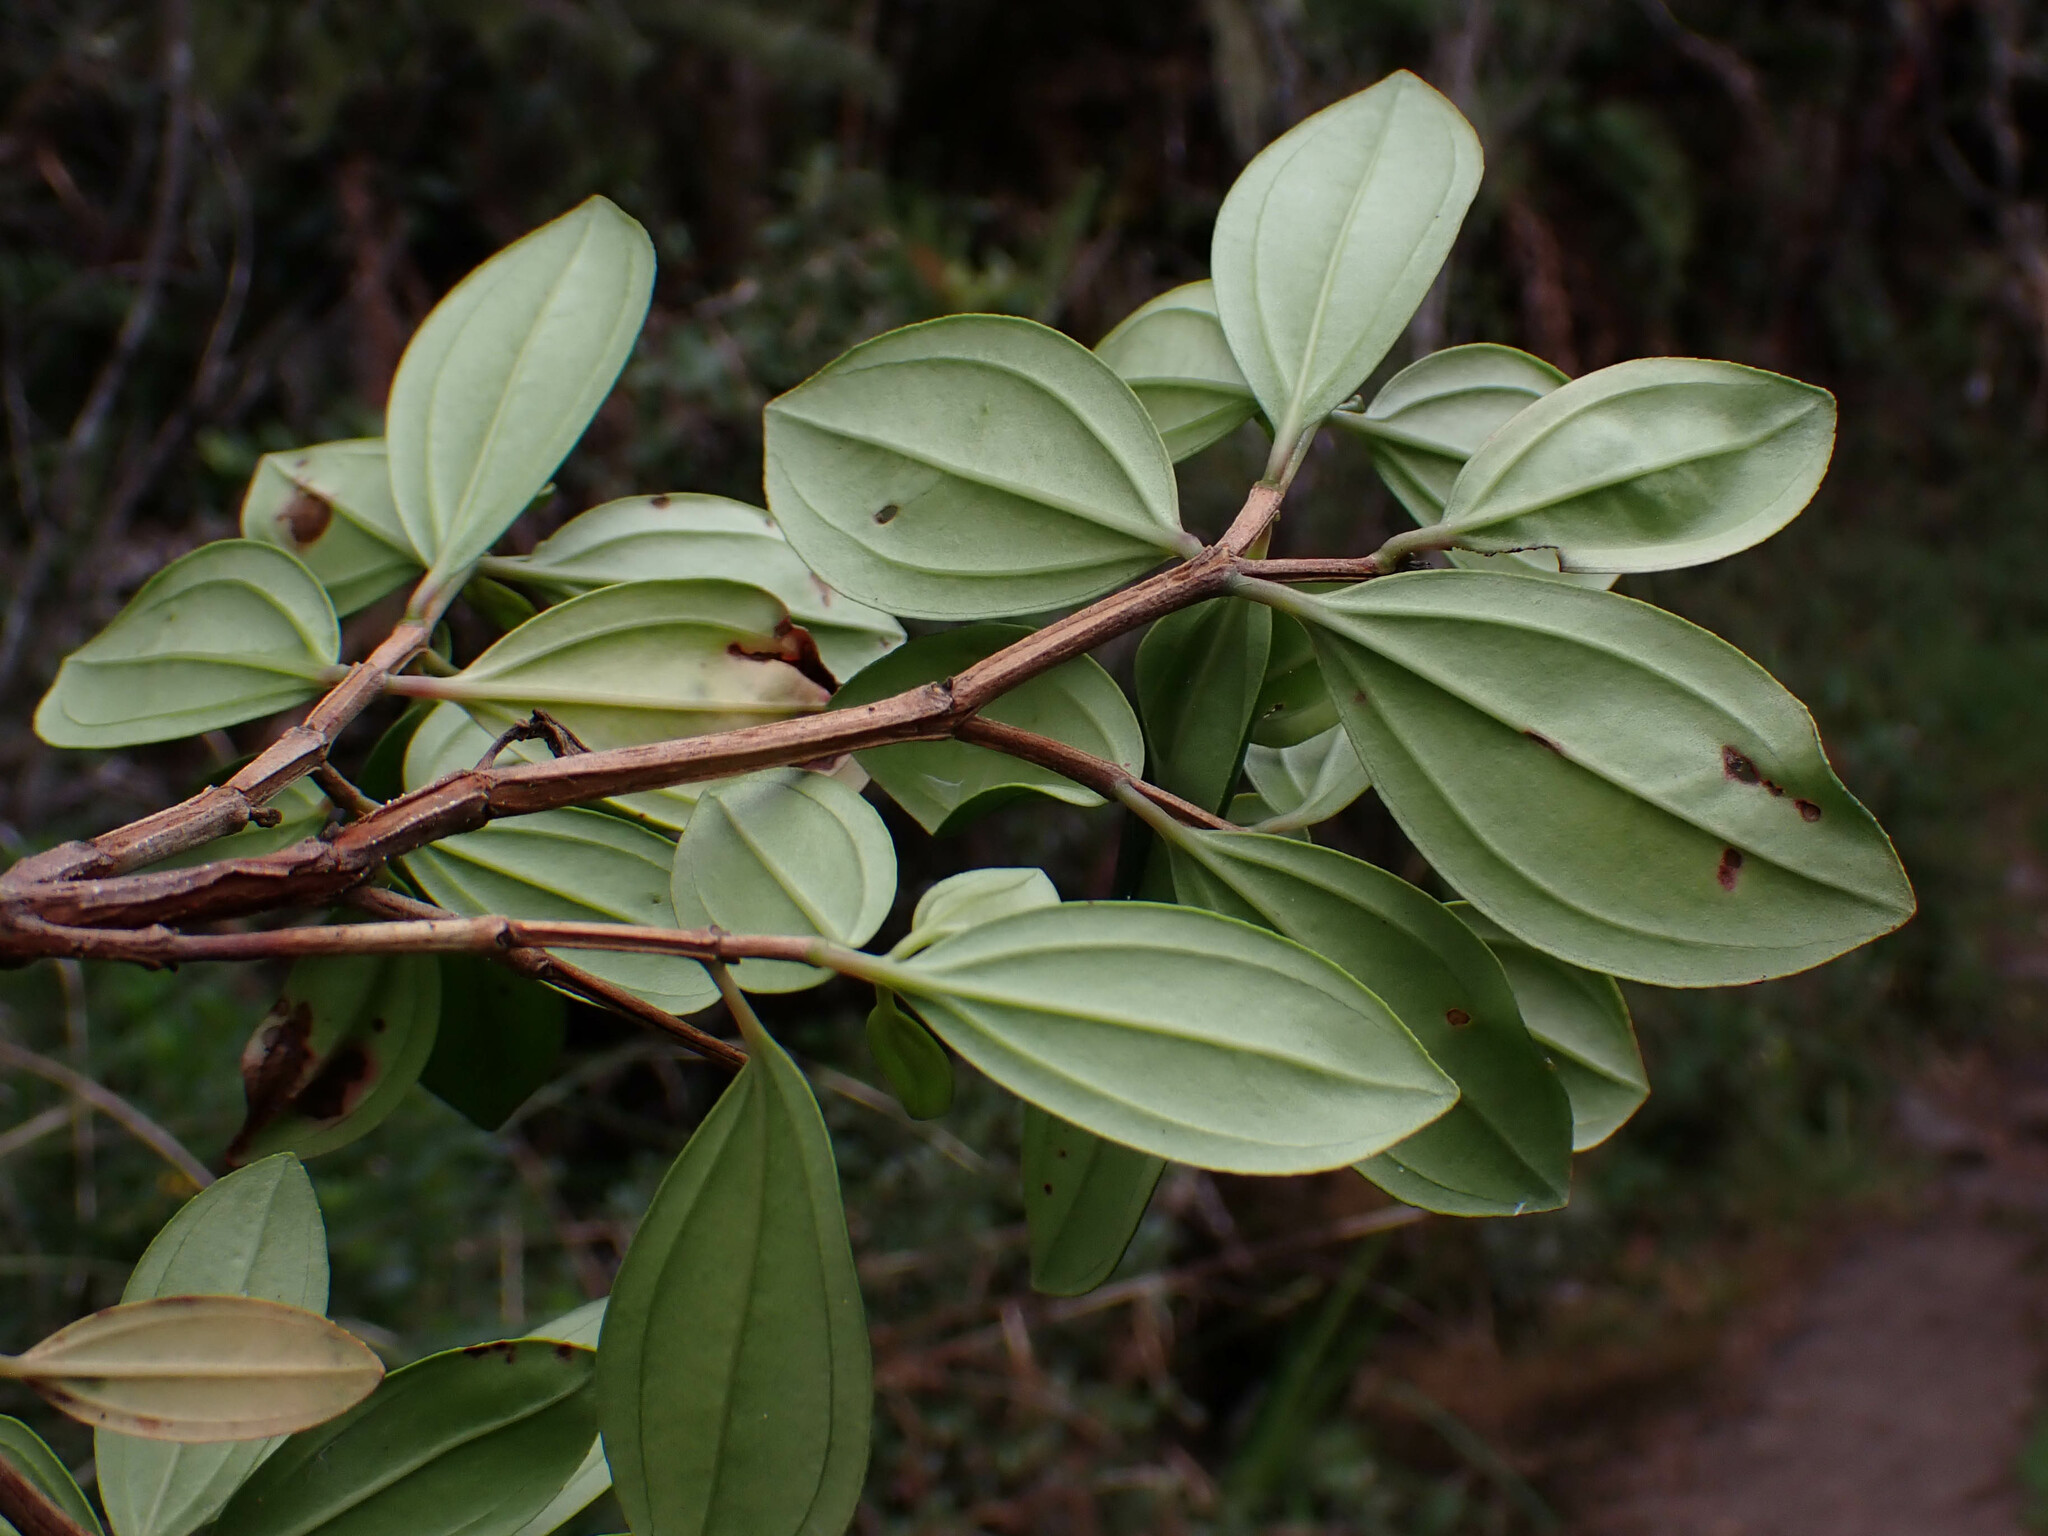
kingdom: Plantae
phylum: Tracheophyta
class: Magnoliopsida
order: Myrtales
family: Melastomataceae
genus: Bucquetia
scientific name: Bucquetia glutinosa
